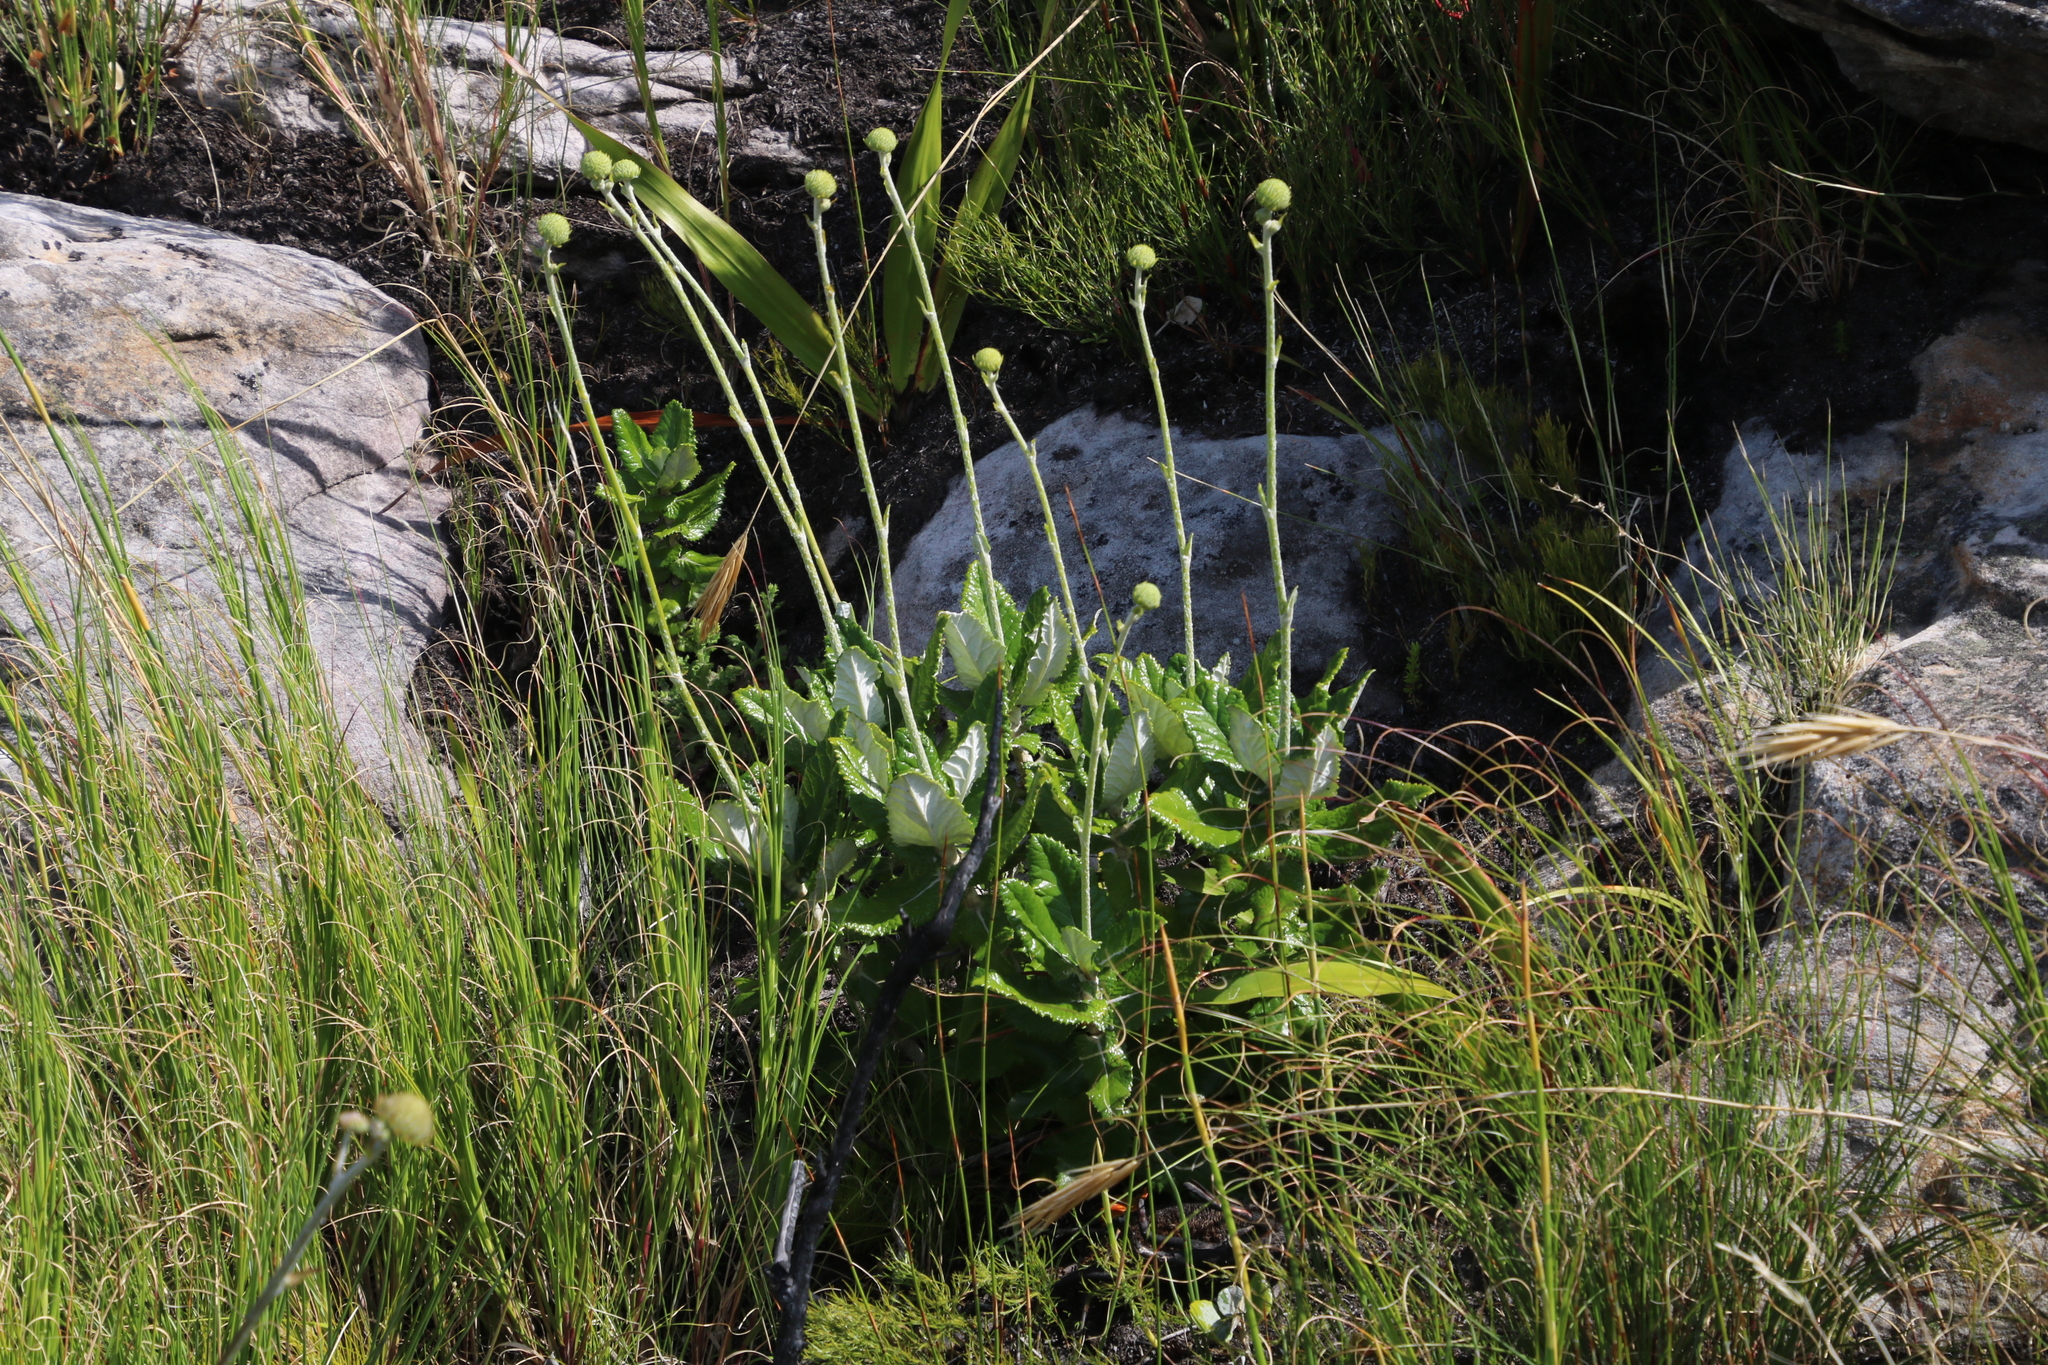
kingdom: Plantae
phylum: Tracheophyta
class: Magnoliopsida
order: Apiales
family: Apiaceae
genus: Hermas
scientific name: Hermas villosa
